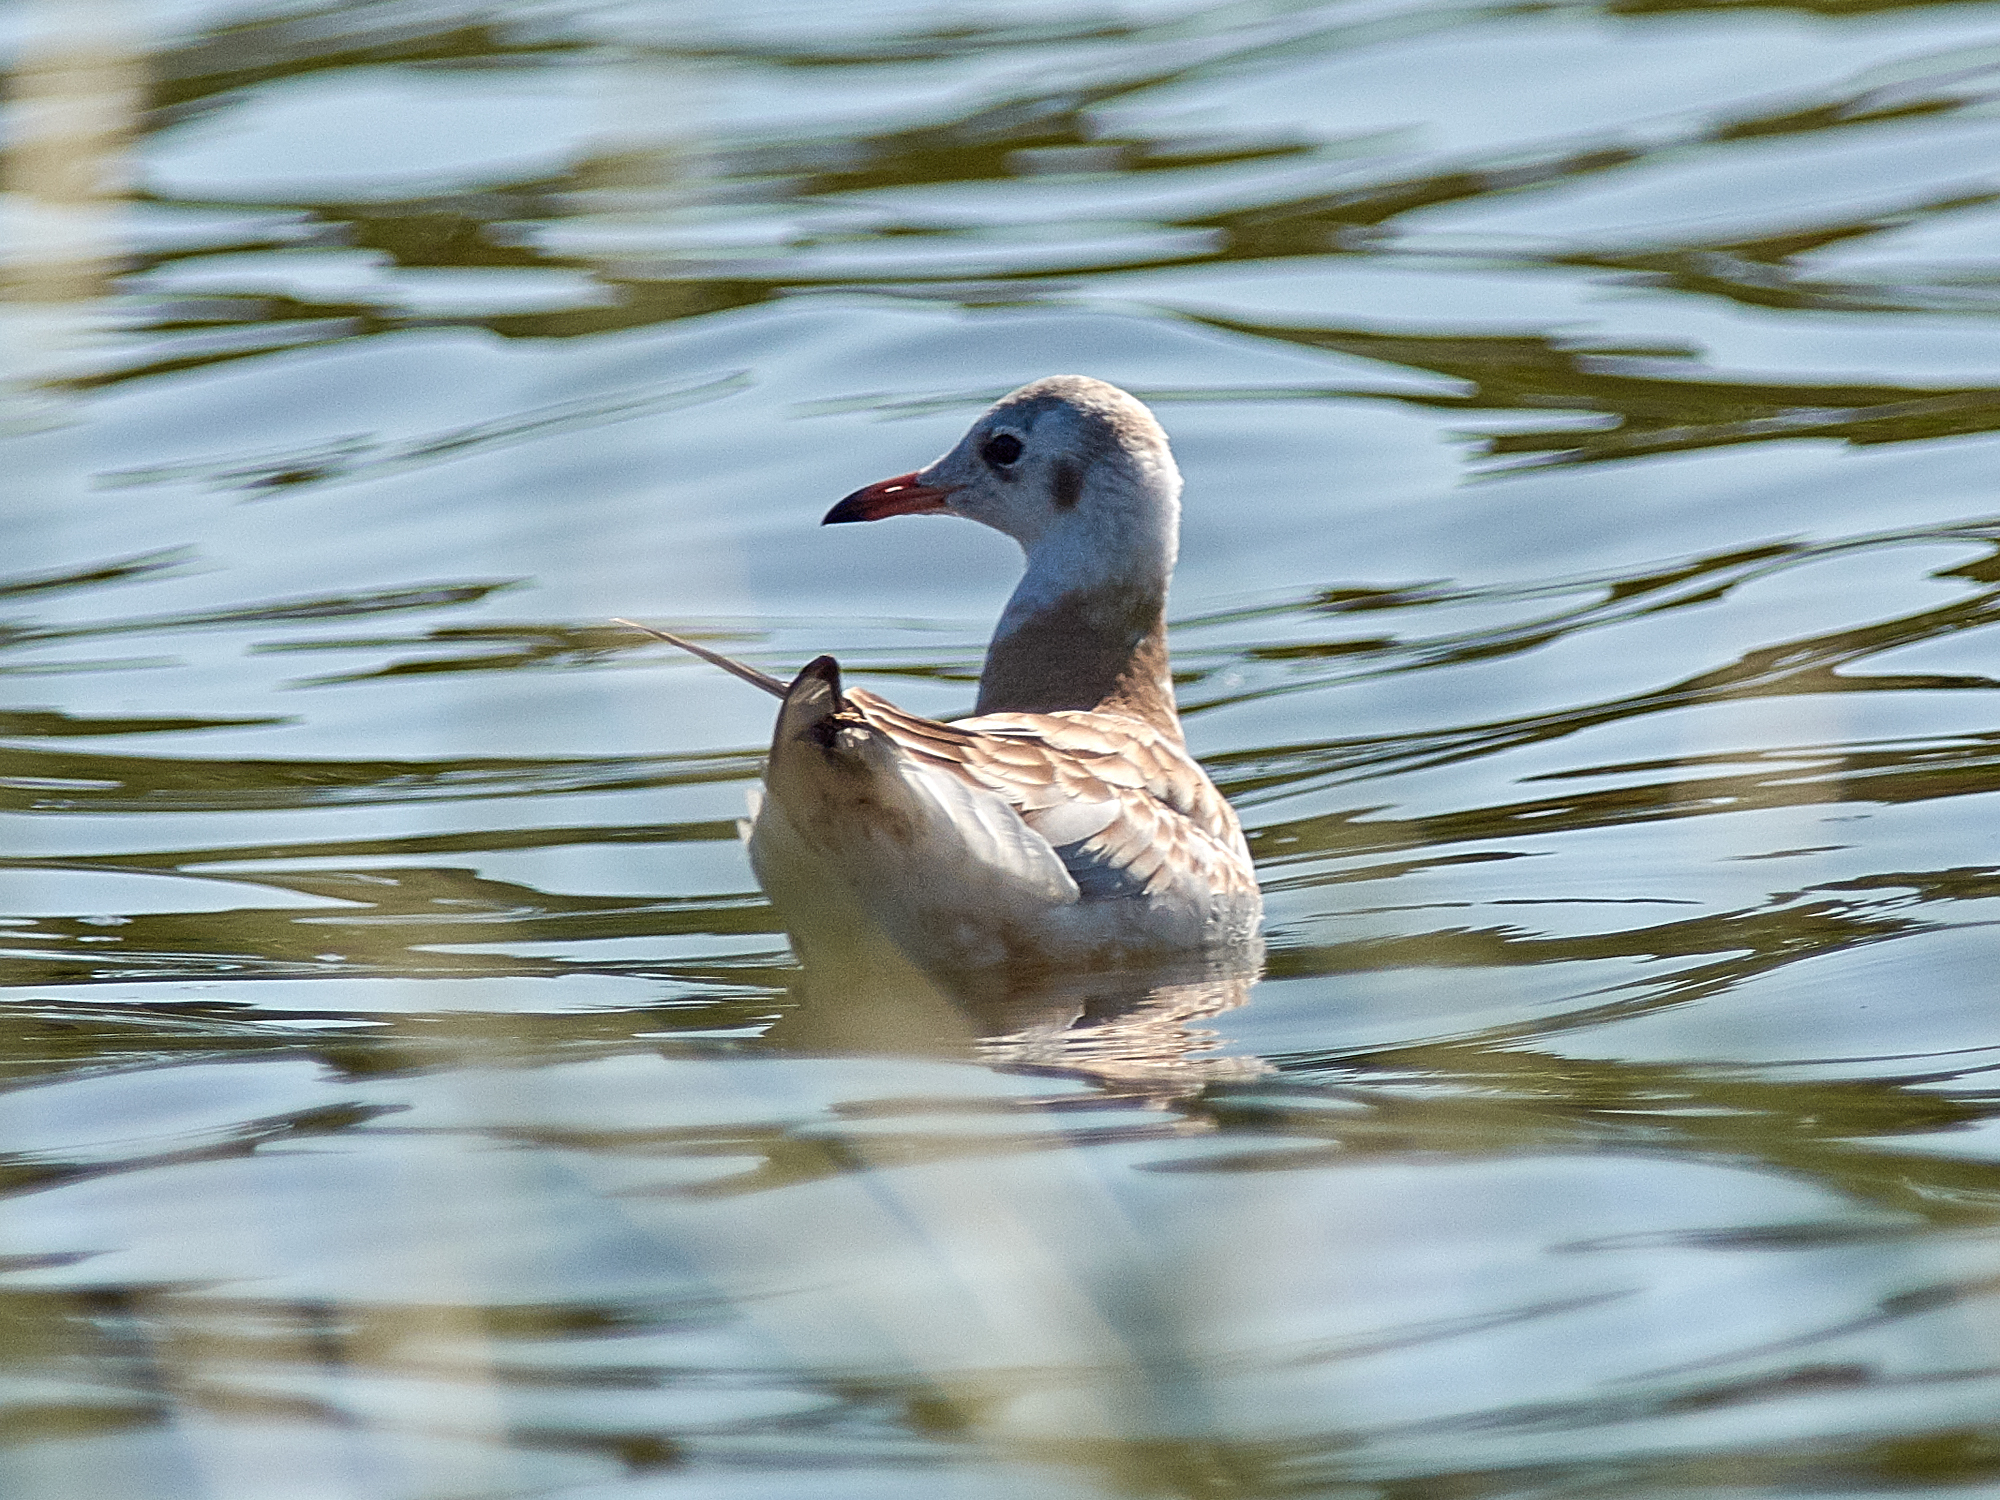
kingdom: Animalia
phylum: Chordata
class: Aves
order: Charadriiformes
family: Laridae
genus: Chroicocephalus
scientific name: Chroicocephalus ridibundus
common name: Black-headed gull
